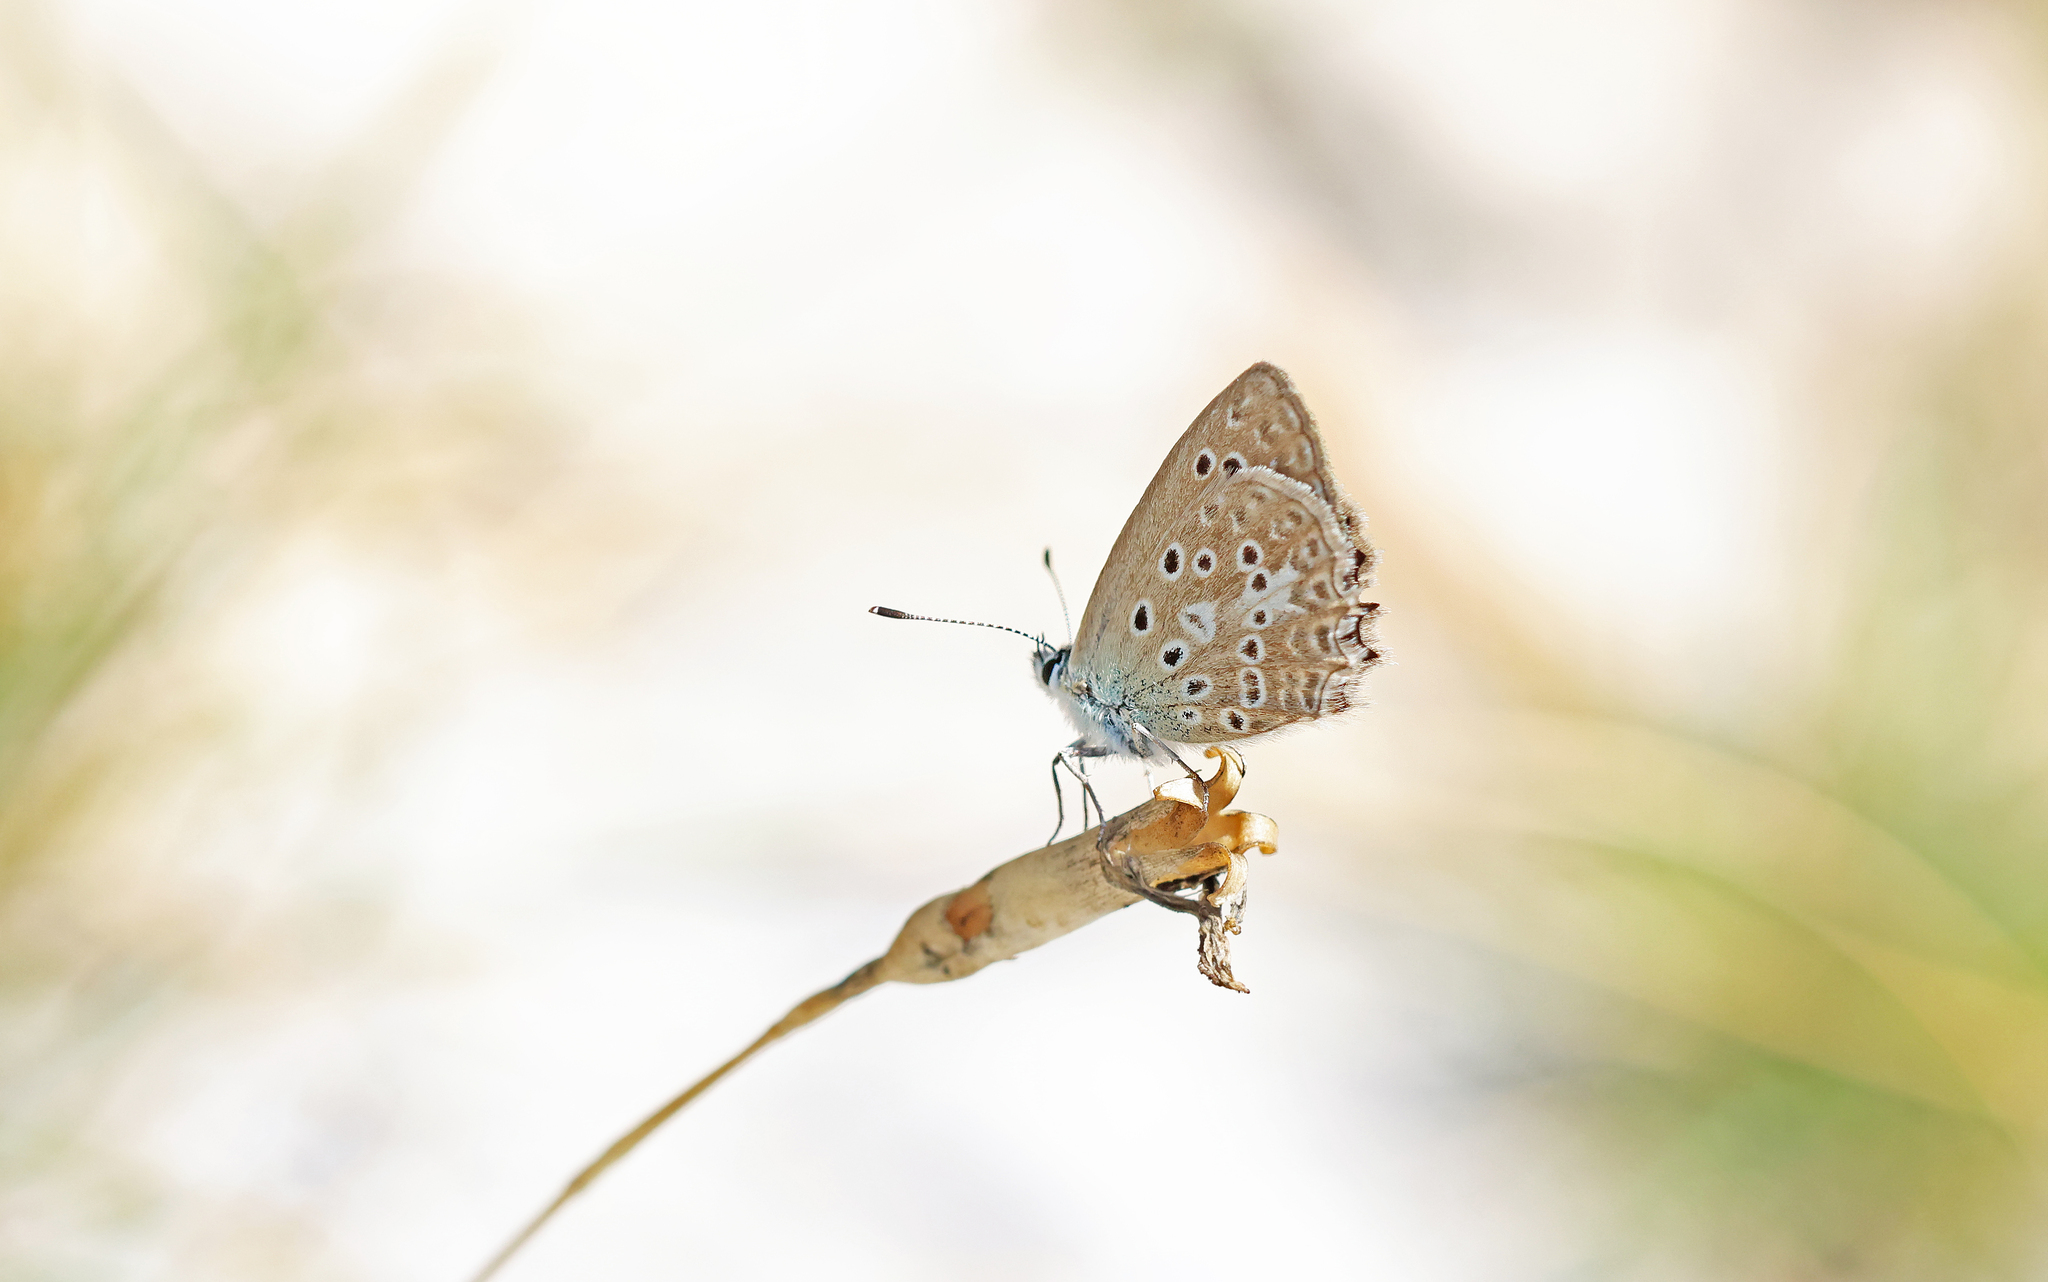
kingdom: Animalia
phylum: Arthropoda
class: Insecta
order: Lepidoptera
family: Lycaenidae
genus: Polyommatus
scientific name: Polyommatus daphnis
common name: Meleager's blue
